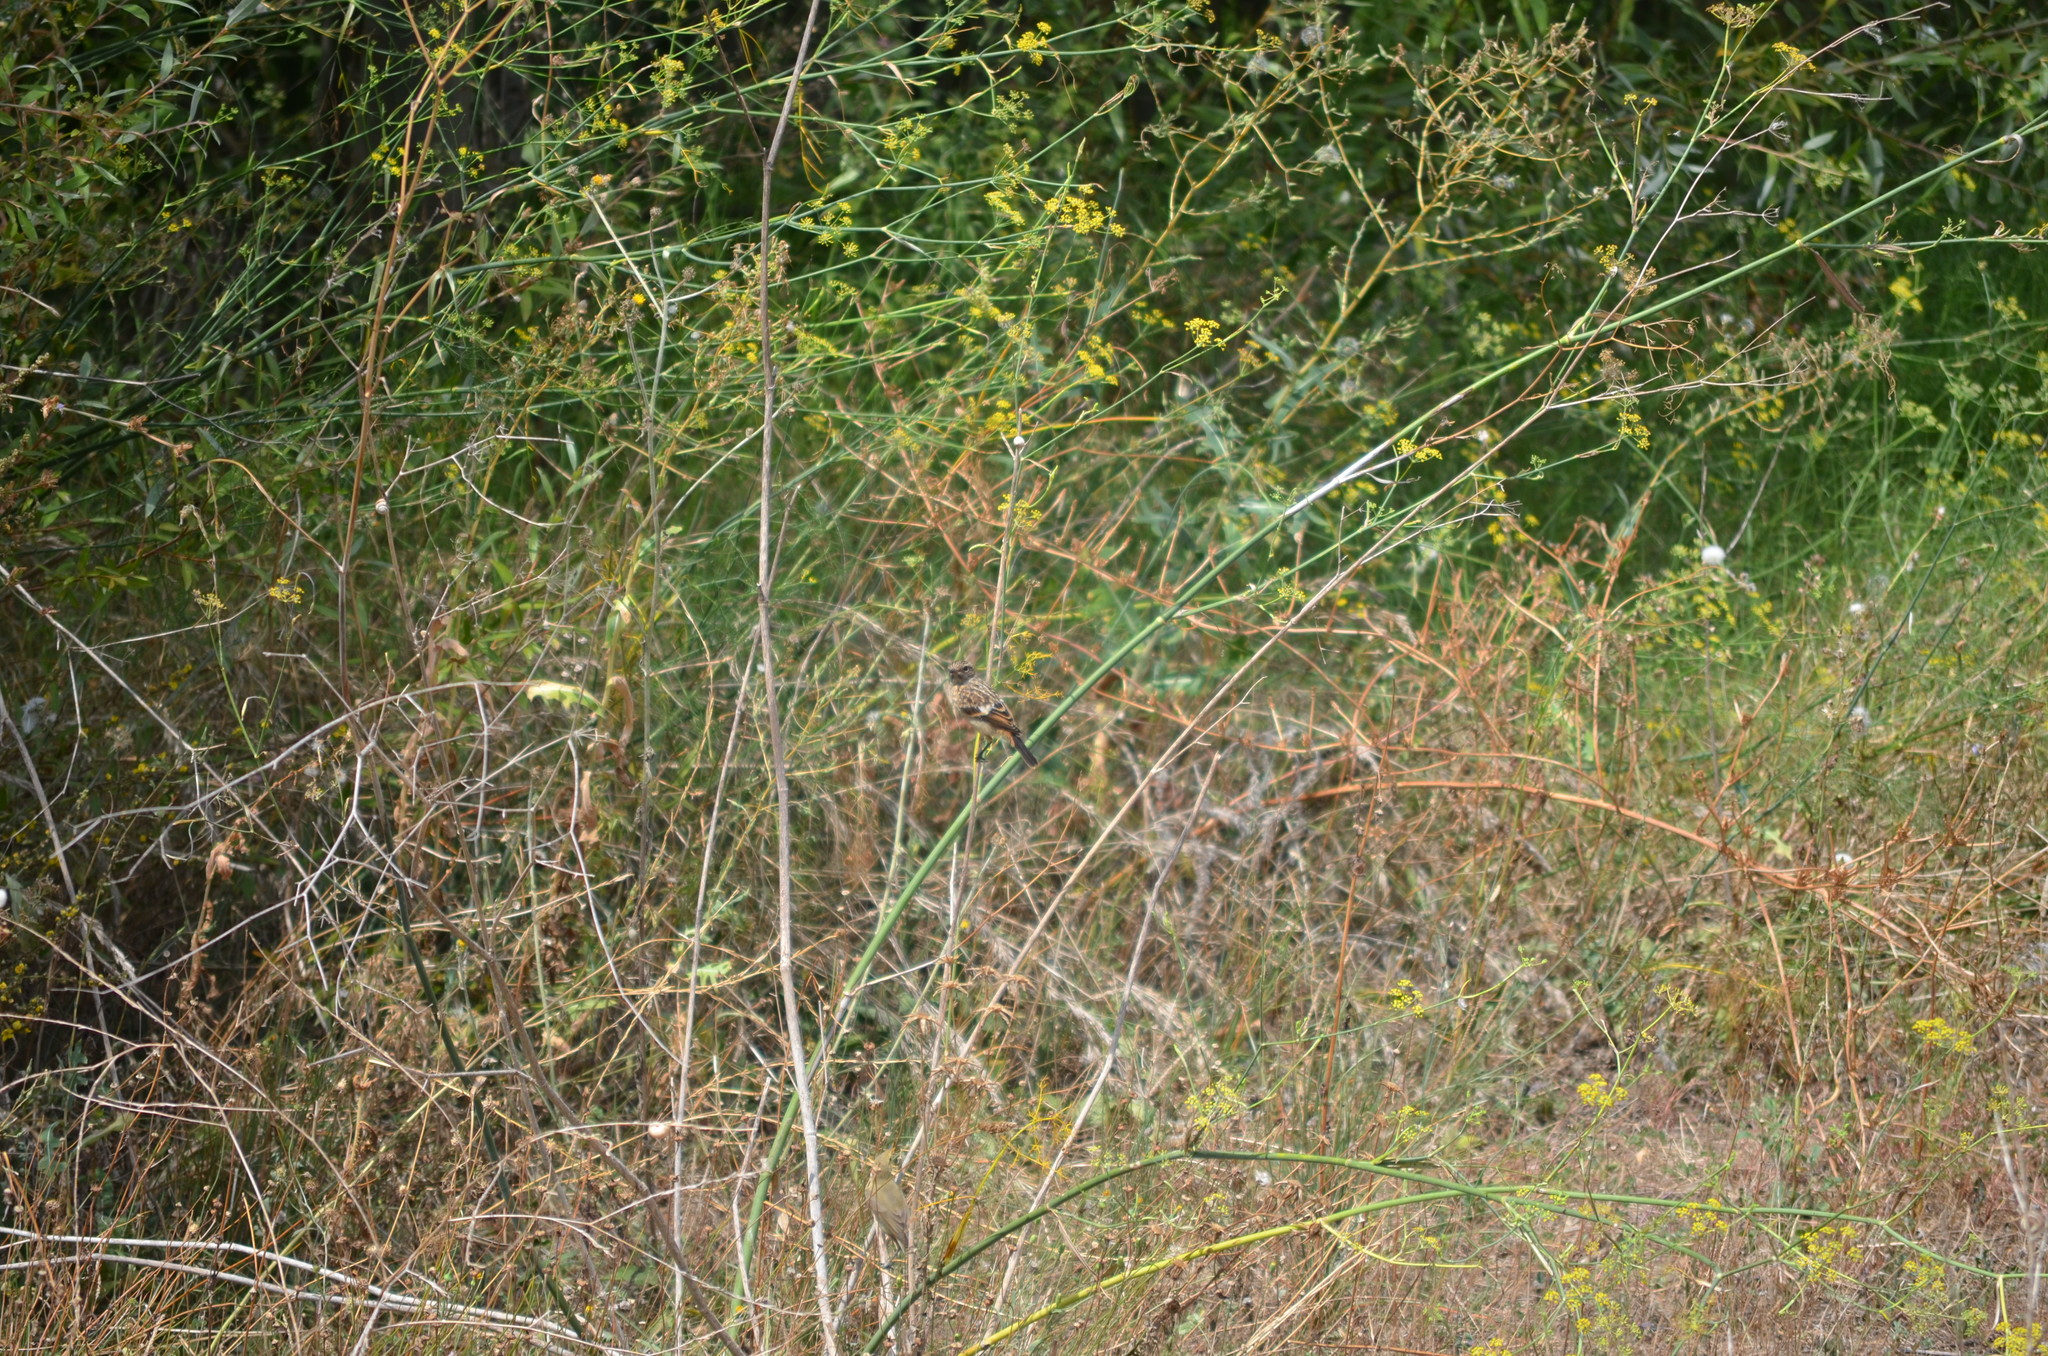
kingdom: Animalia
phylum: Chordata
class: Aves
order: Passeriformes
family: Muscicapidae
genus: Saxicola
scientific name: Saxicola rubicola
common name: European stonechat
